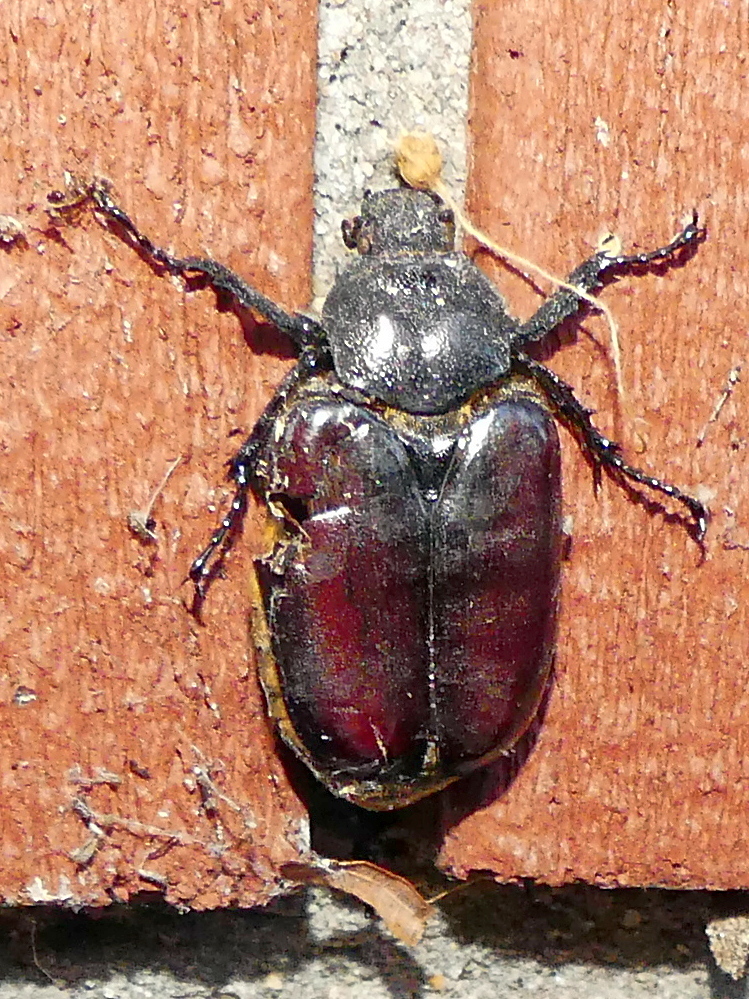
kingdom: Animalia
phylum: Arthropoda
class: Insecta
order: Coleoptera
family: Scarabaeidae
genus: Osmoderma
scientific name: Osmoderma eremicola
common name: Hermit flower beetle
